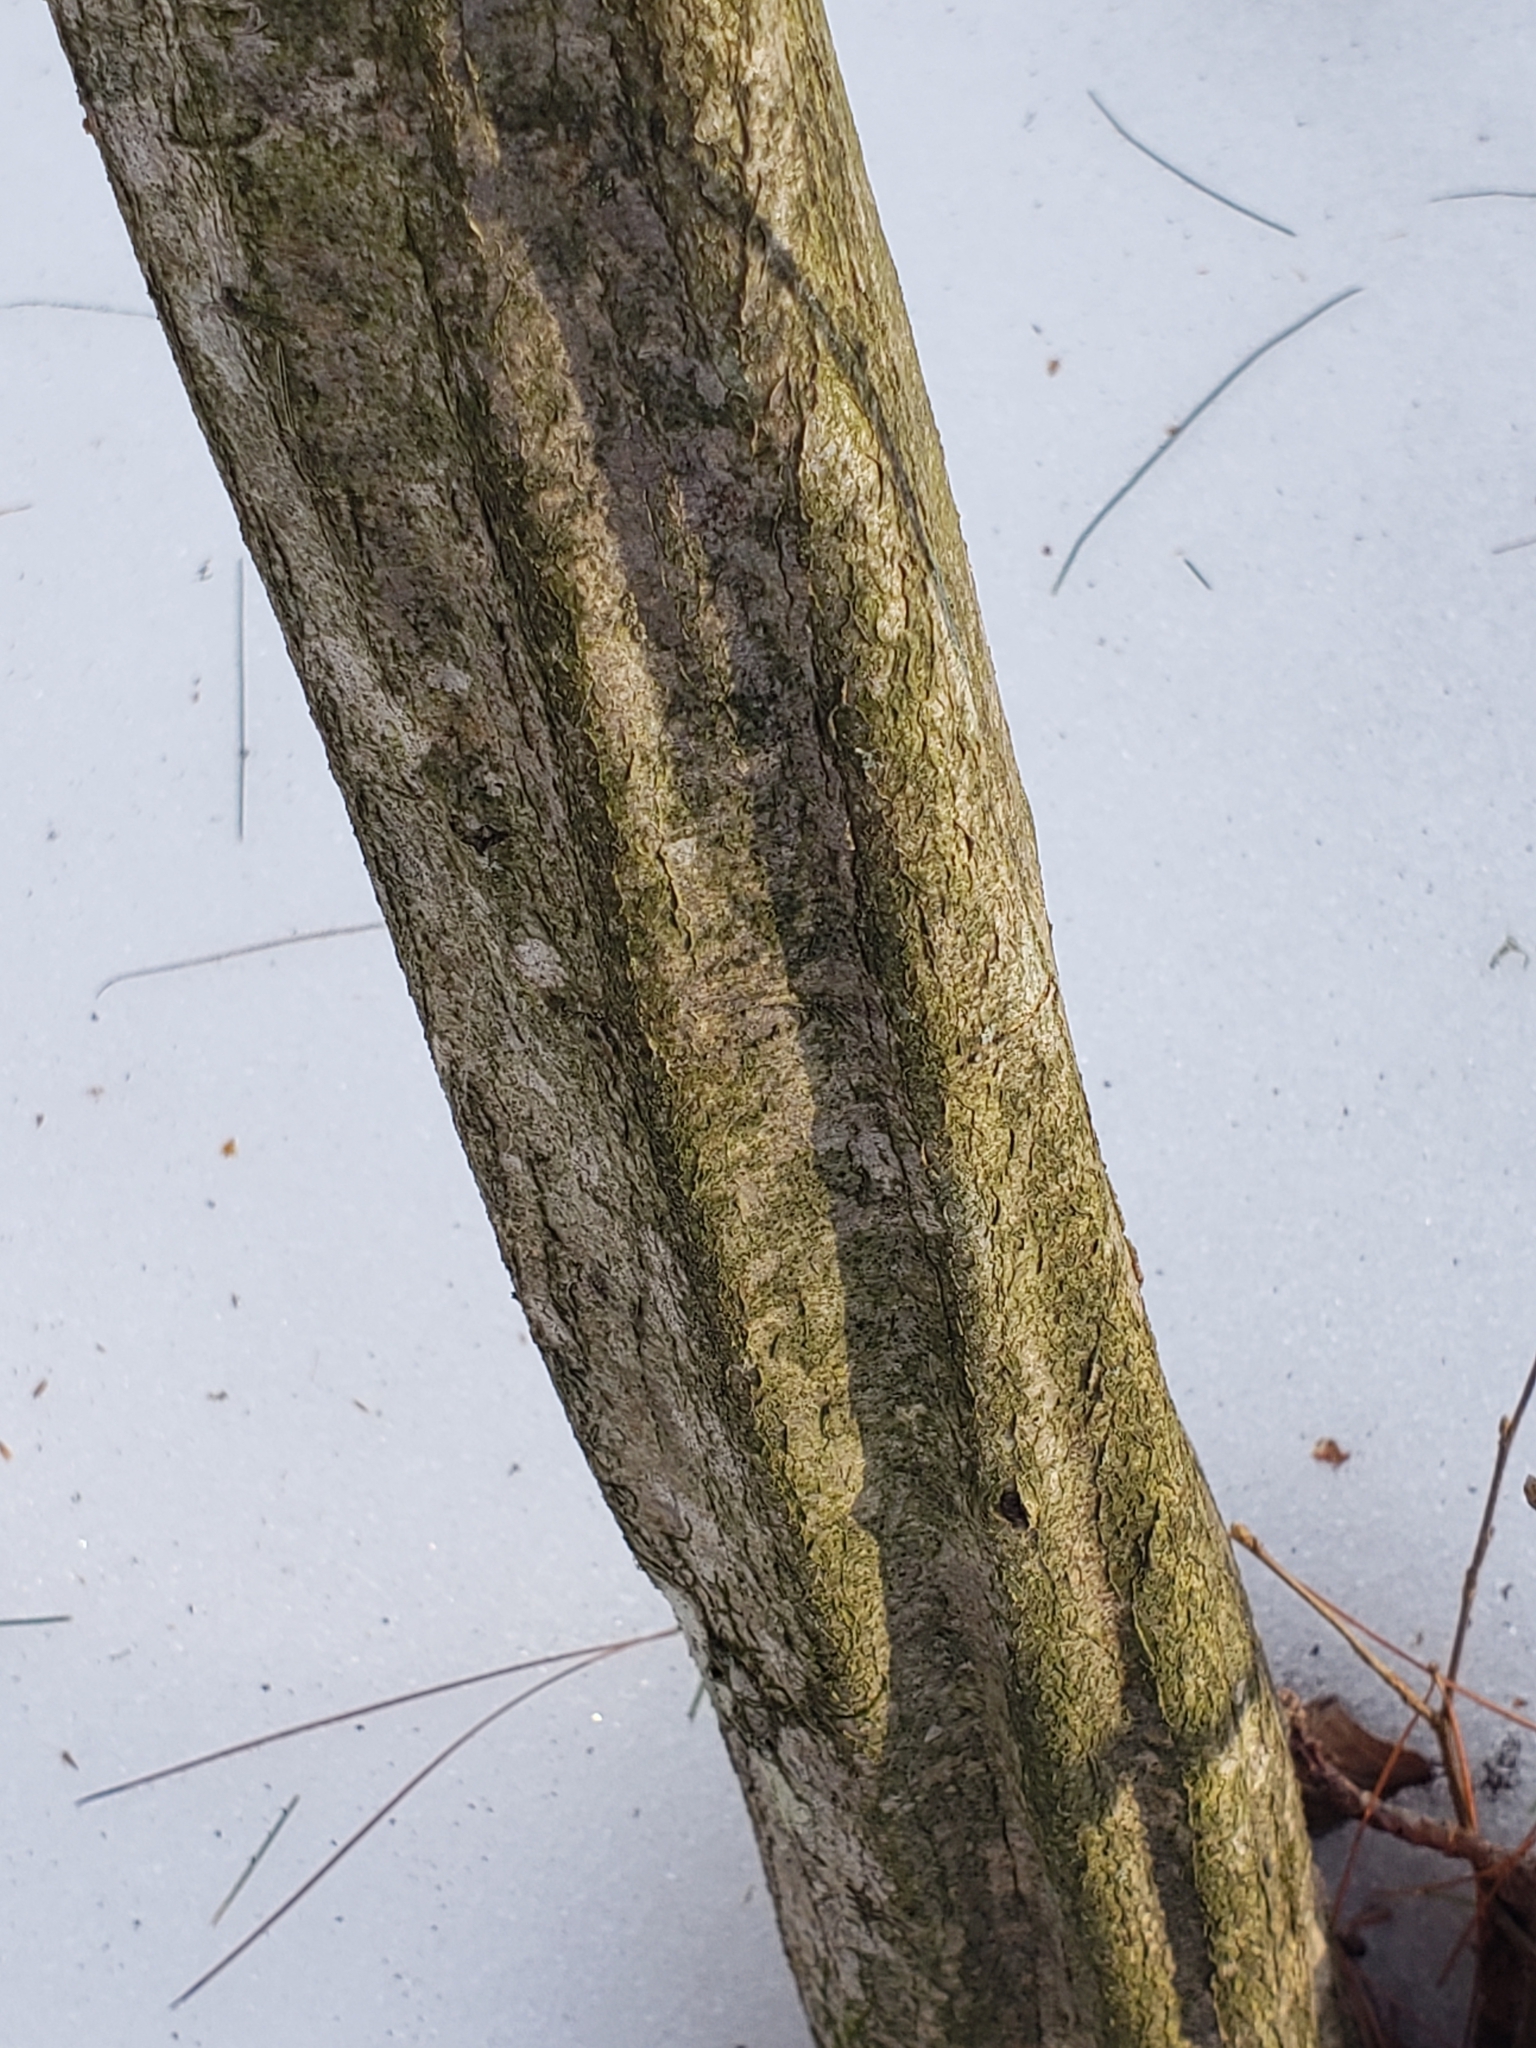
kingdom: Plantae
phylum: Tracheophyta
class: Magnoliopsida
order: Fagales
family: Betulaceae
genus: Carpinus
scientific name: Carpinus caroliniana
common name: American hornbeam
